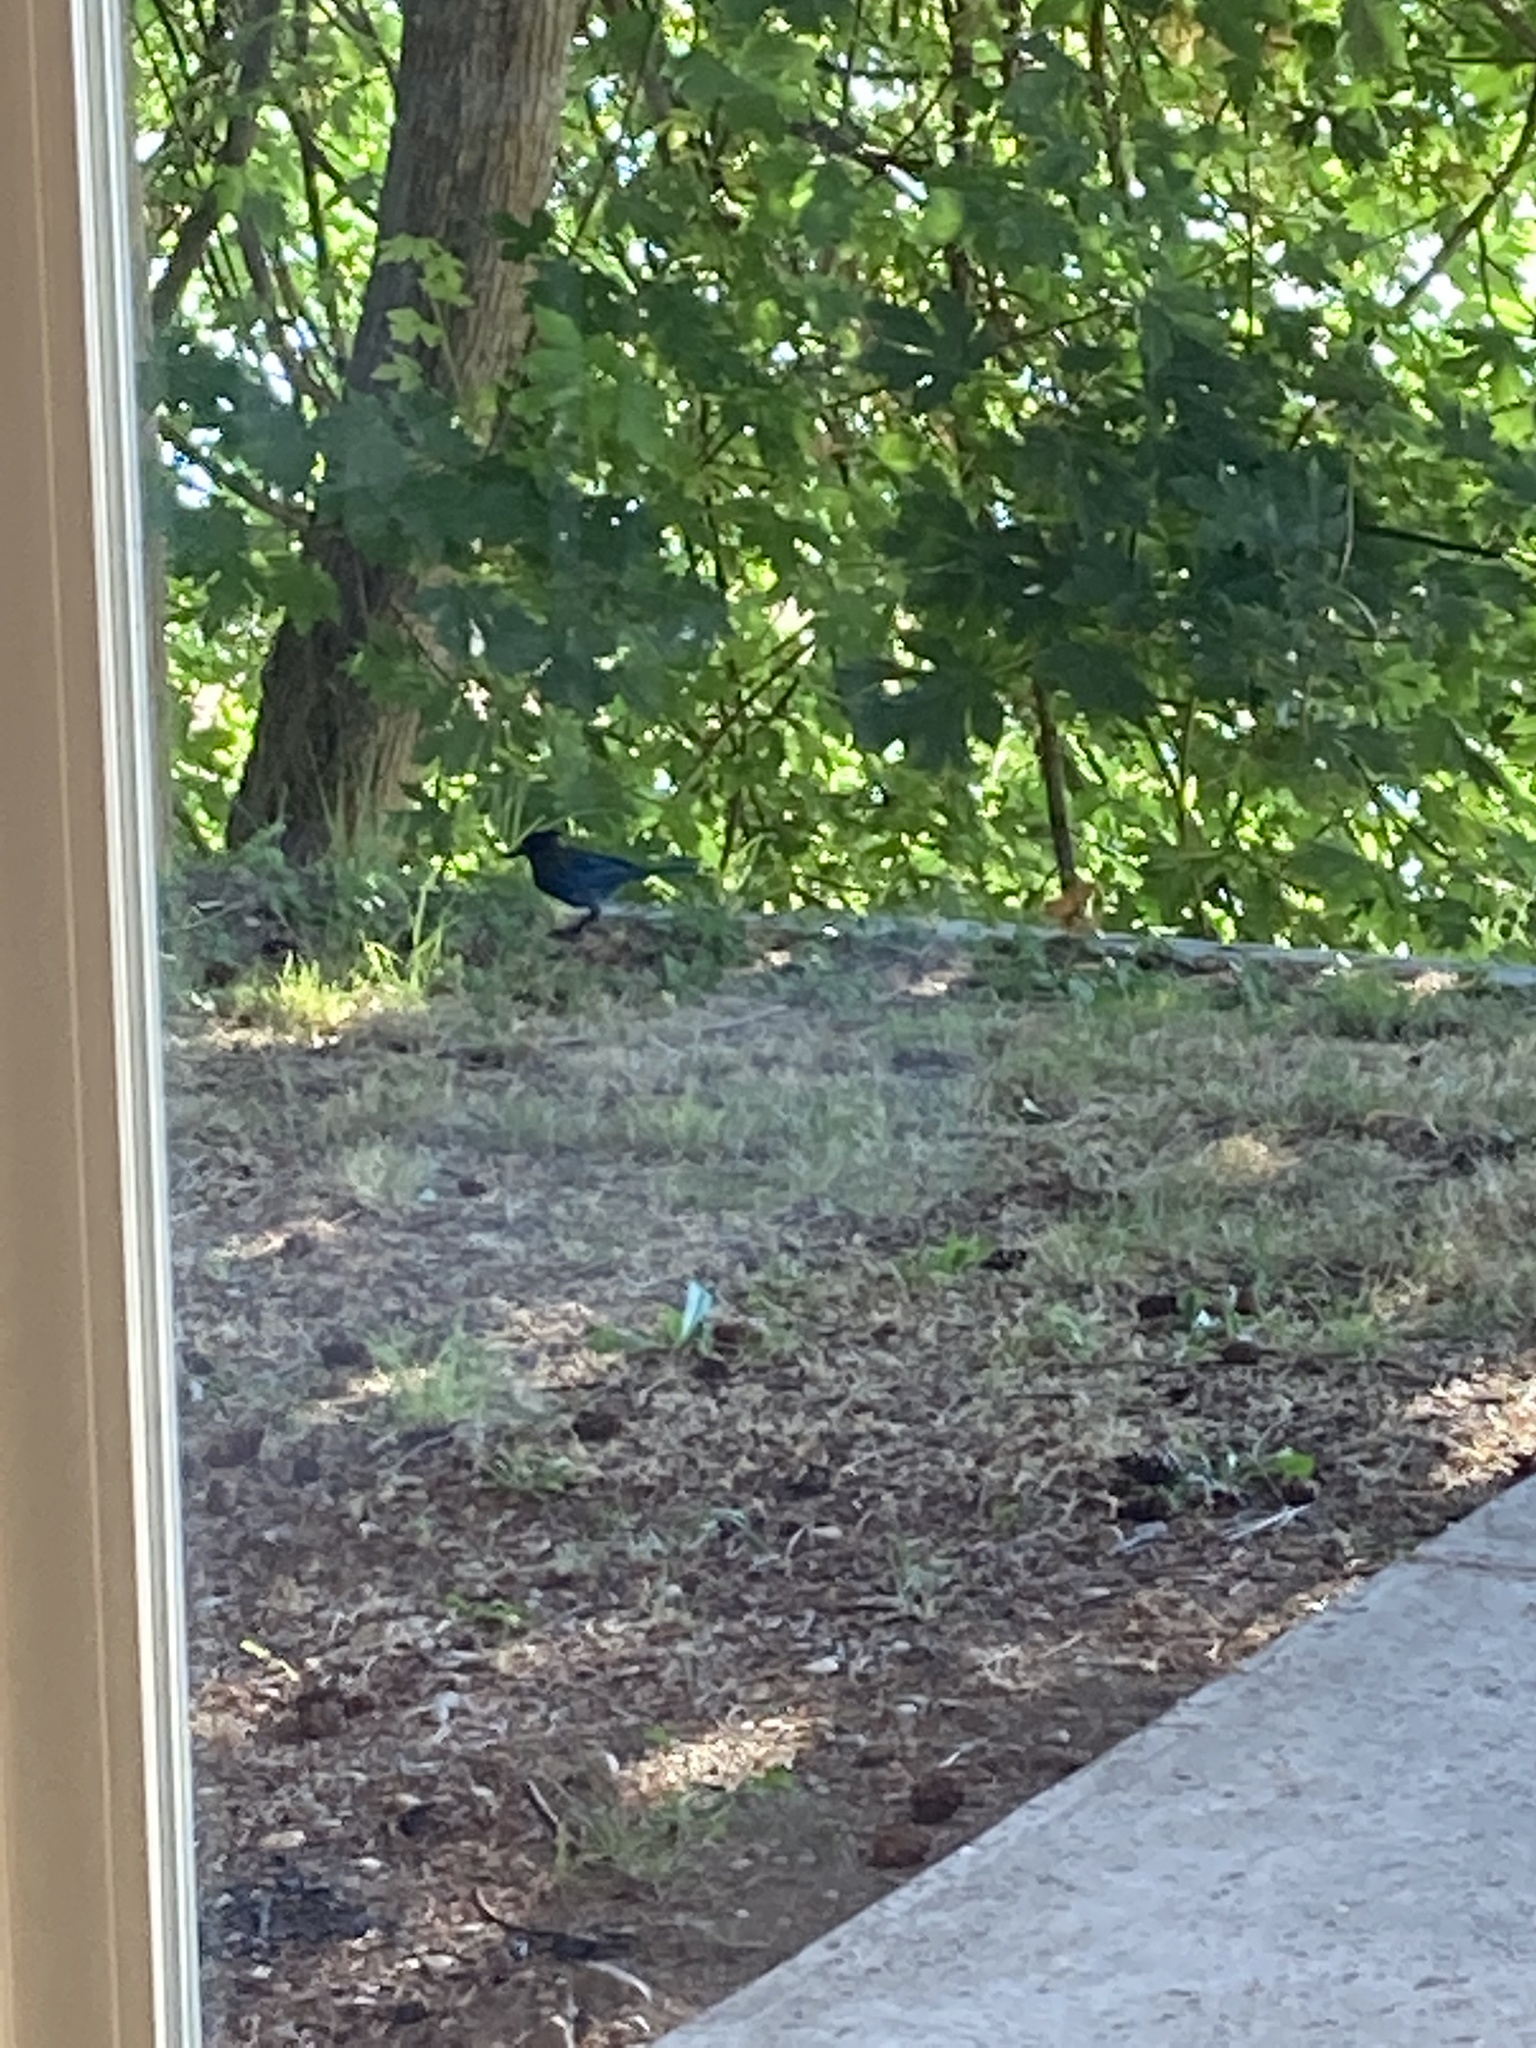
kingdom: Animalia
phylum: Chordata
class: Aves
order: Passeriformes
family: Corvidae
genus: Cyanocitta
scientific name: Cyanocitta stelleri
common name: Steller's jay
